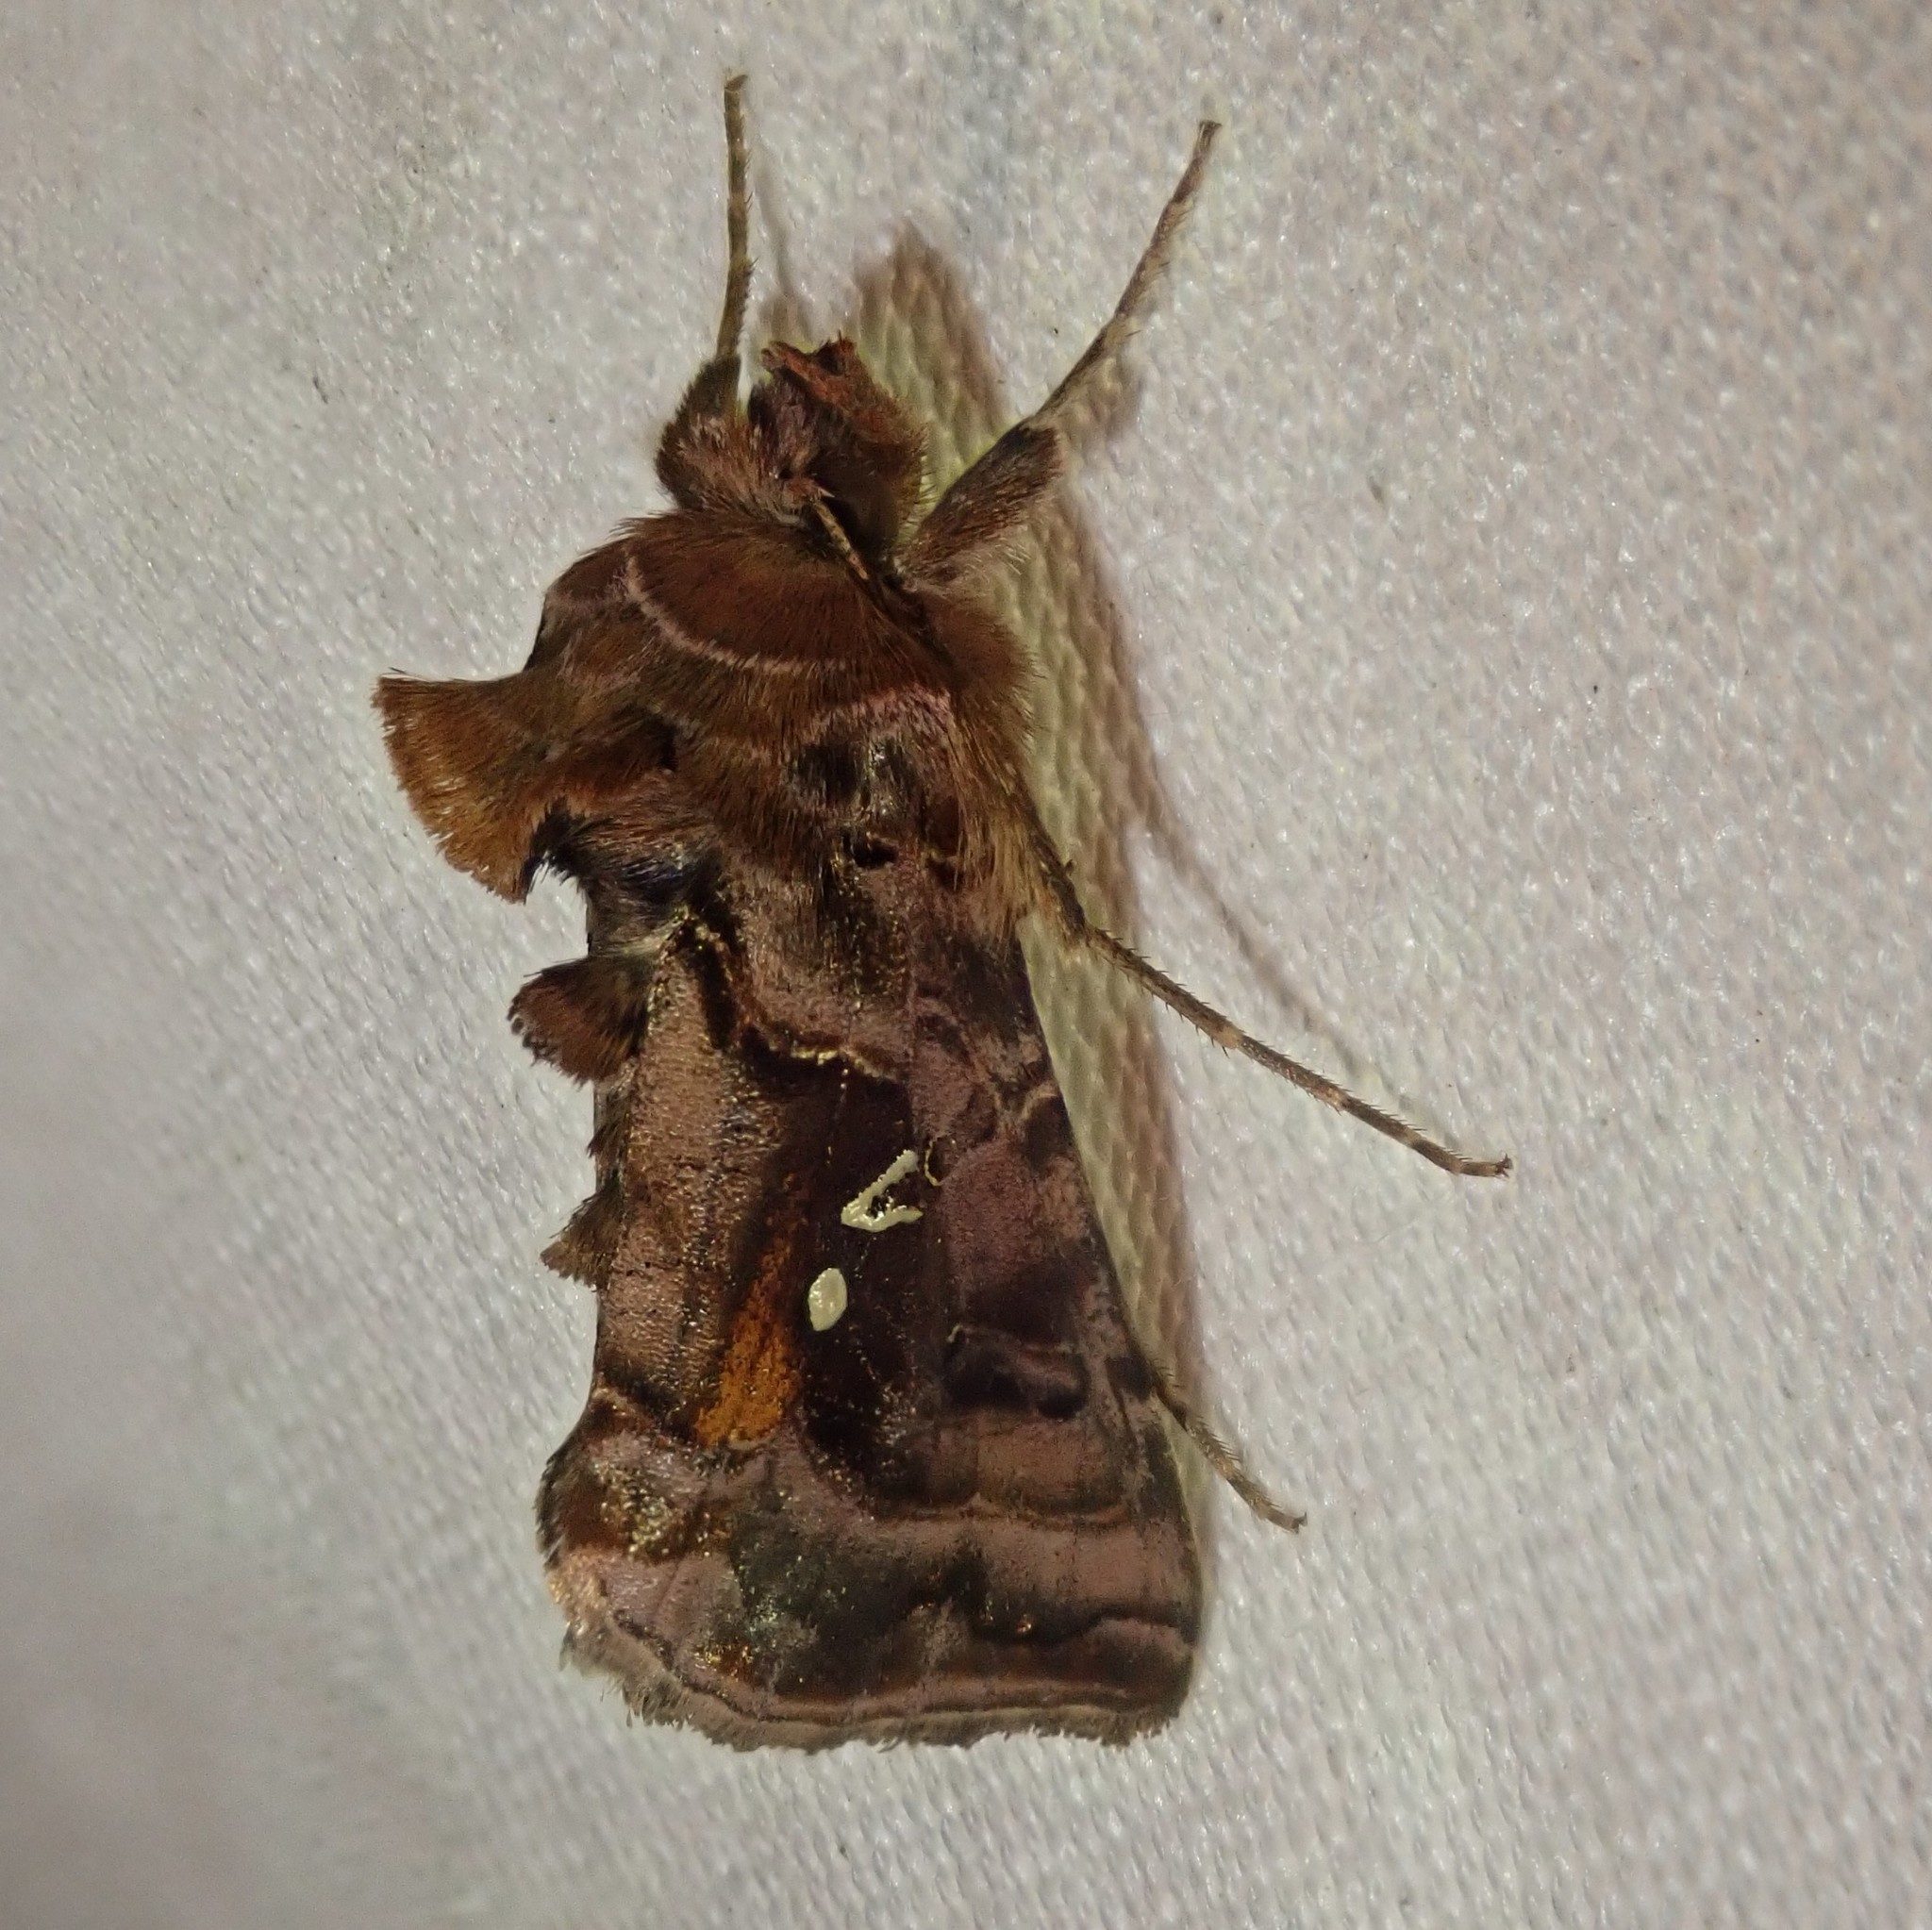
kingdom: Animalia
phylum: Arthropoda
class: Insecta
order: Lepidoptera
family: Noctuidae
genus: Autographa
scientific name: Autographa pulchrina
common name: Beautiful golden y
